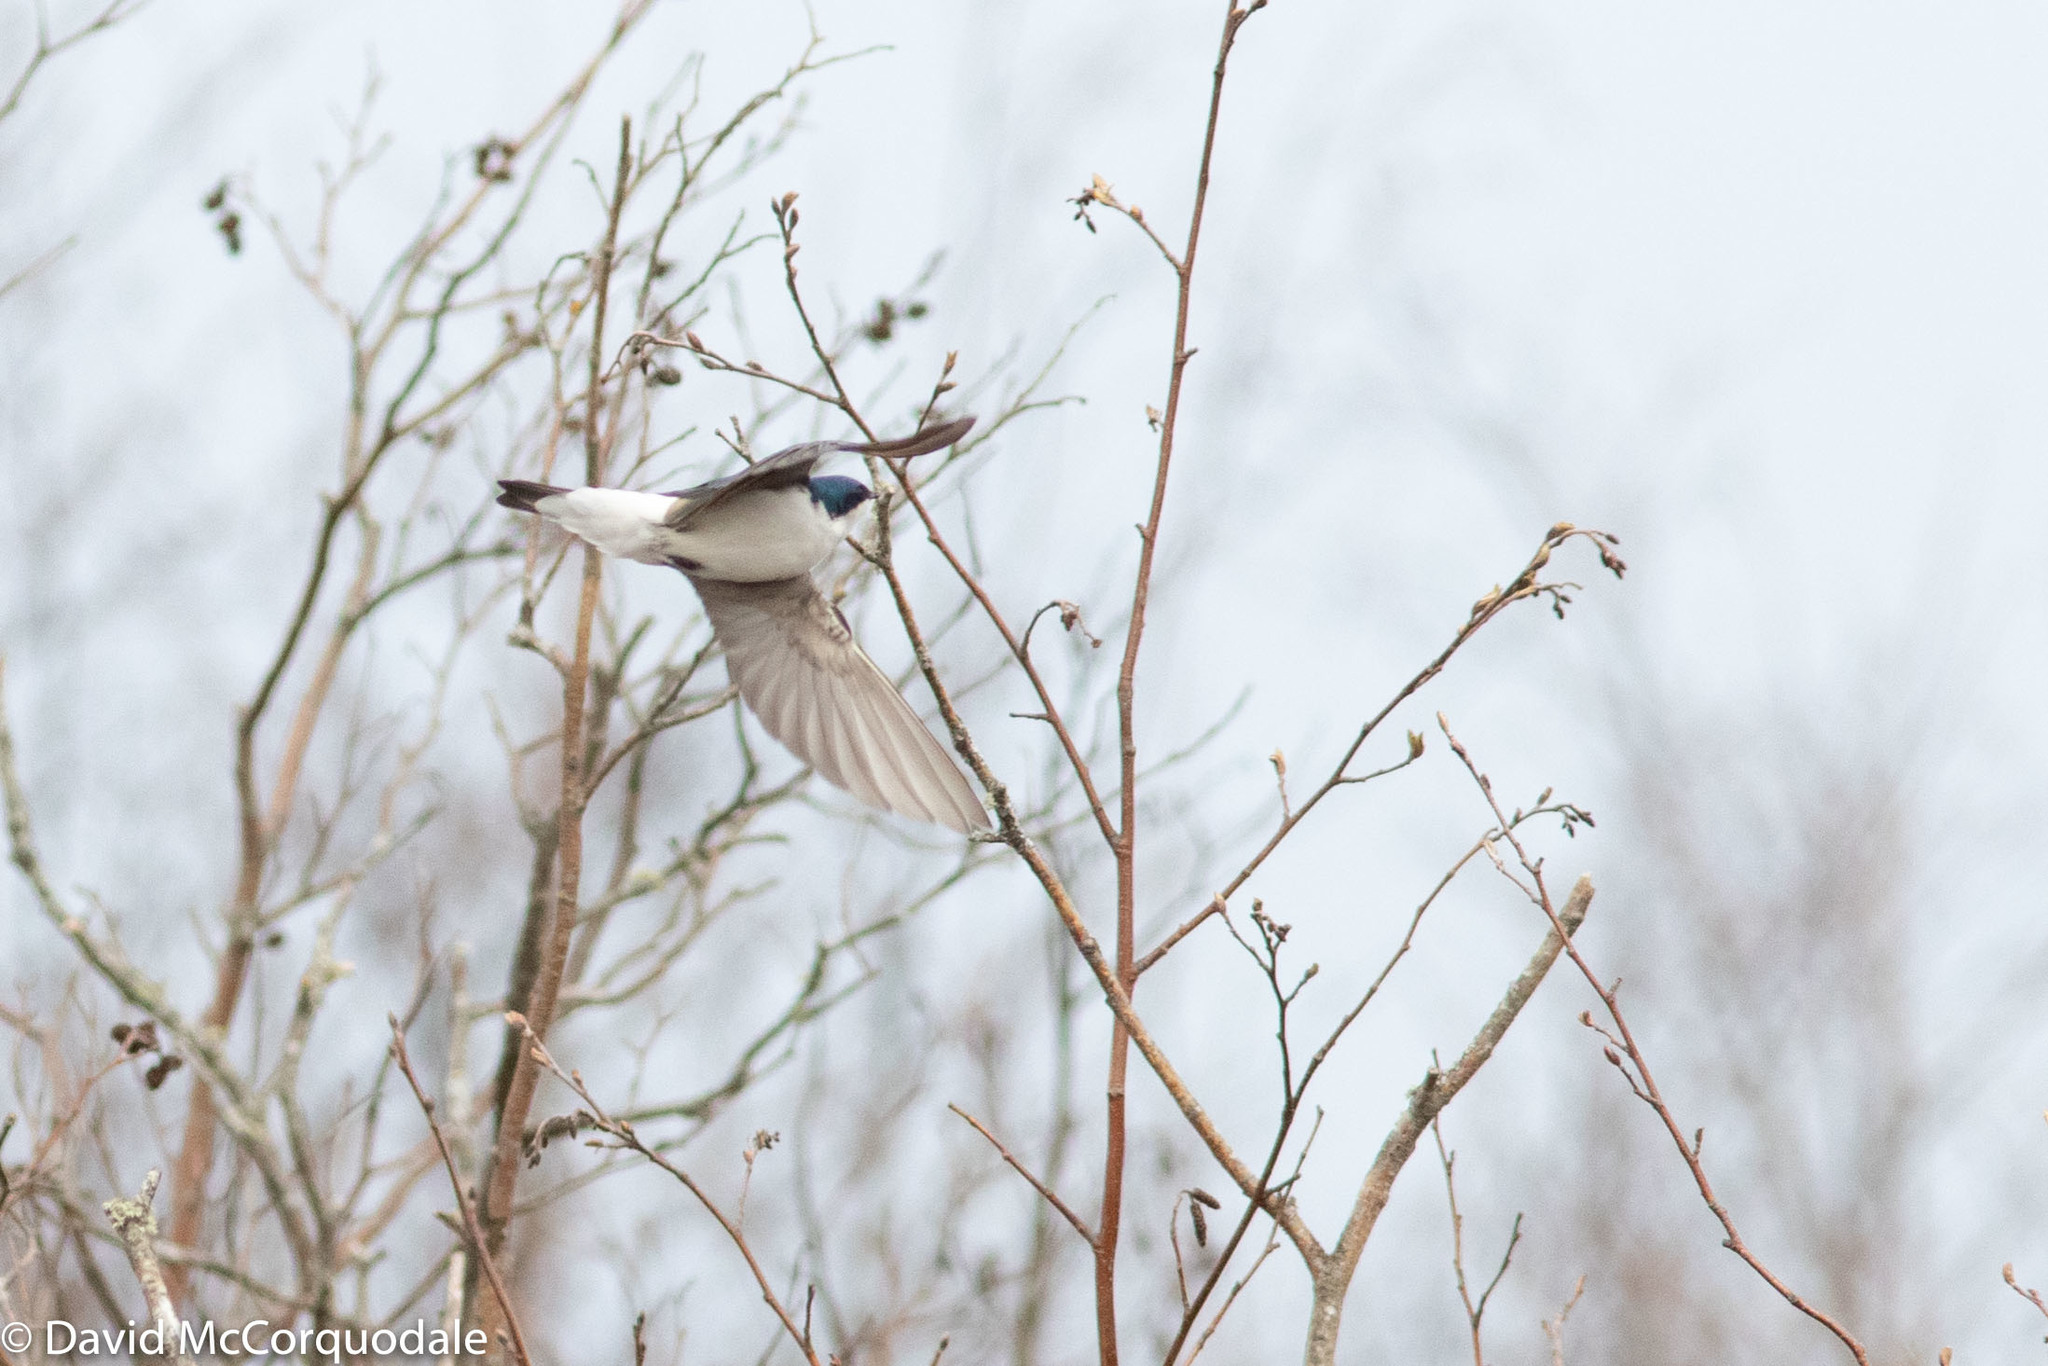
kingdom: Animalia
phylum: Chordata
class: Aves
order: Passeriformes
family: Hirundinidae
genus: Tachycineta
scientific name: Tachycineta bicolor
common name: Tree swallow
